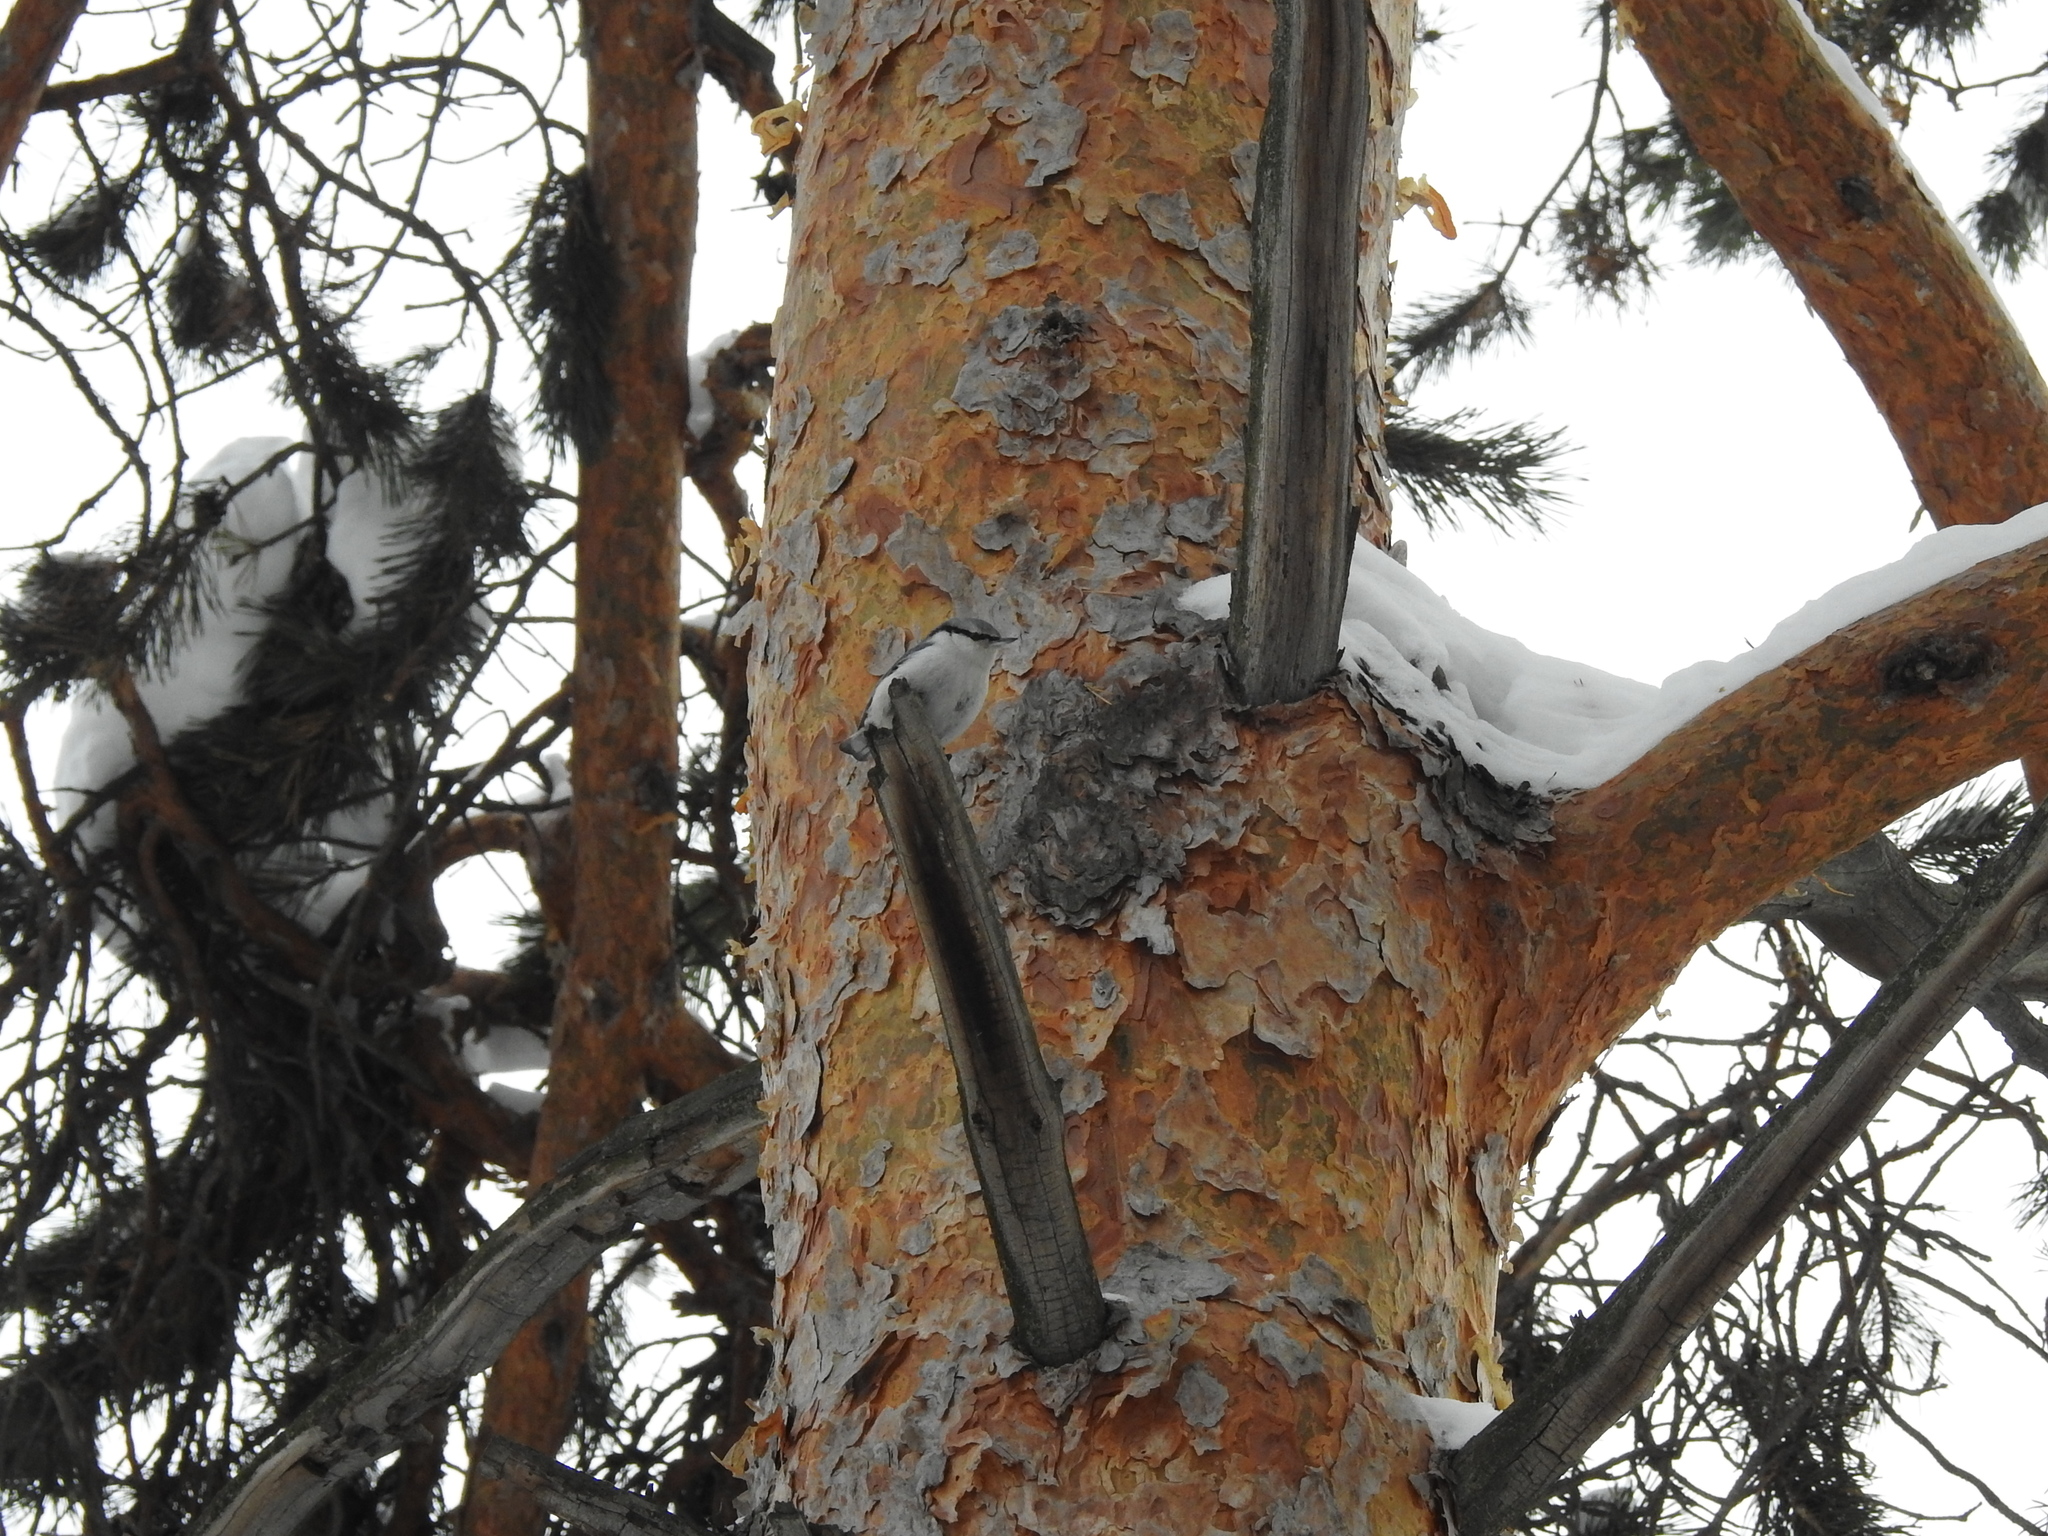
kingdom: Animalia
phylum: Chordata
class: Aves
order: Passeriformes
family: Sittidae
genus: Sitta
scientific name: Sitta europaea
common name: Eurasian nuthatch
